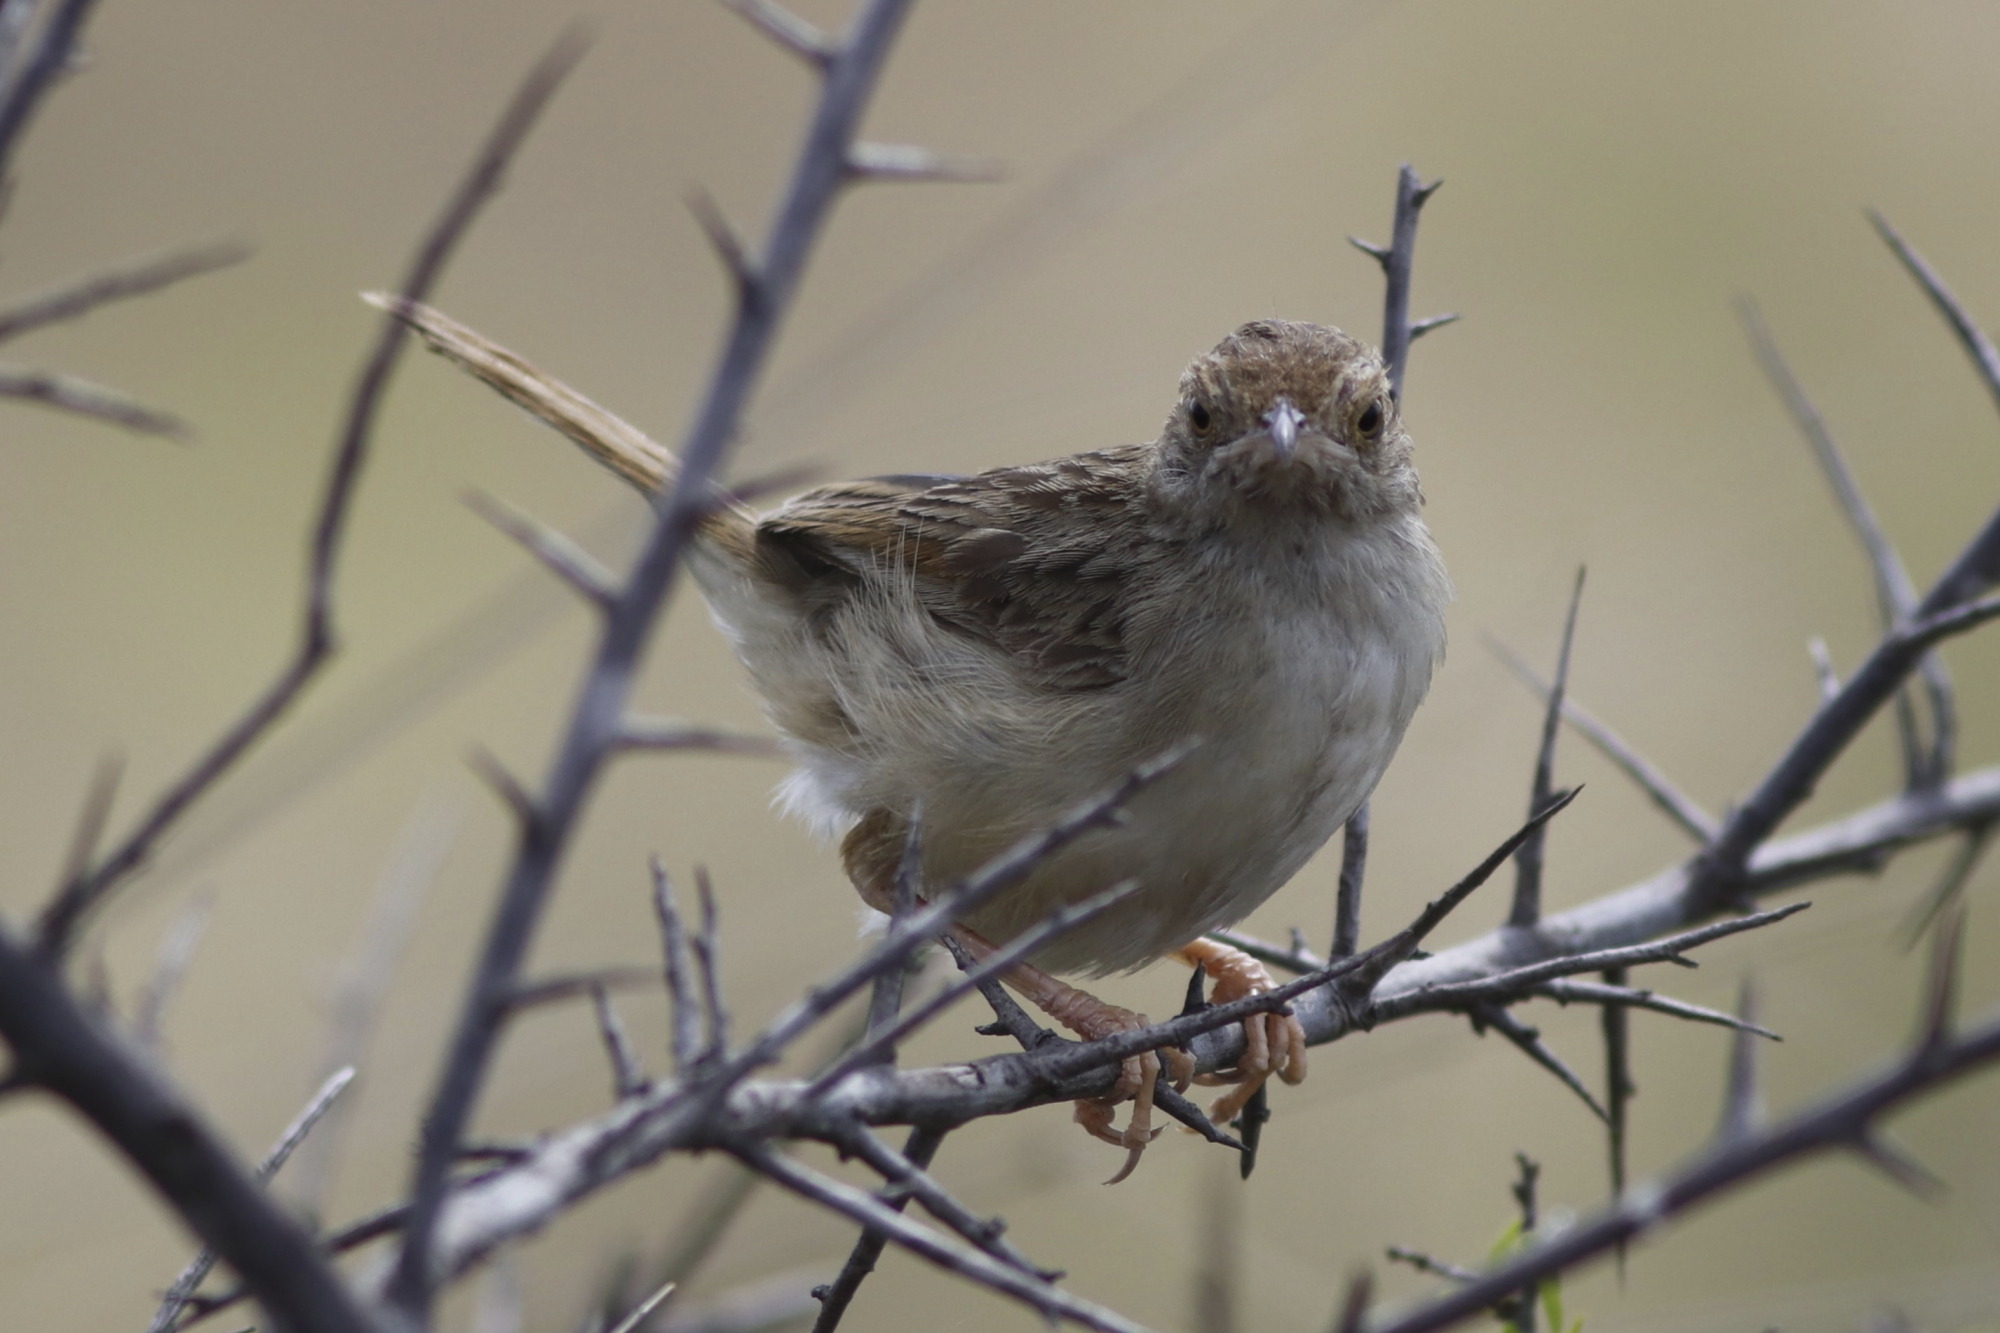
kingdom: Animalia
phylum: Chordata
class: Aves
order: Passeriformes
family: Cisticolidae
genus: Cisticola
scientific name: Cisticola chiniana
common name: Rattling cisticola
